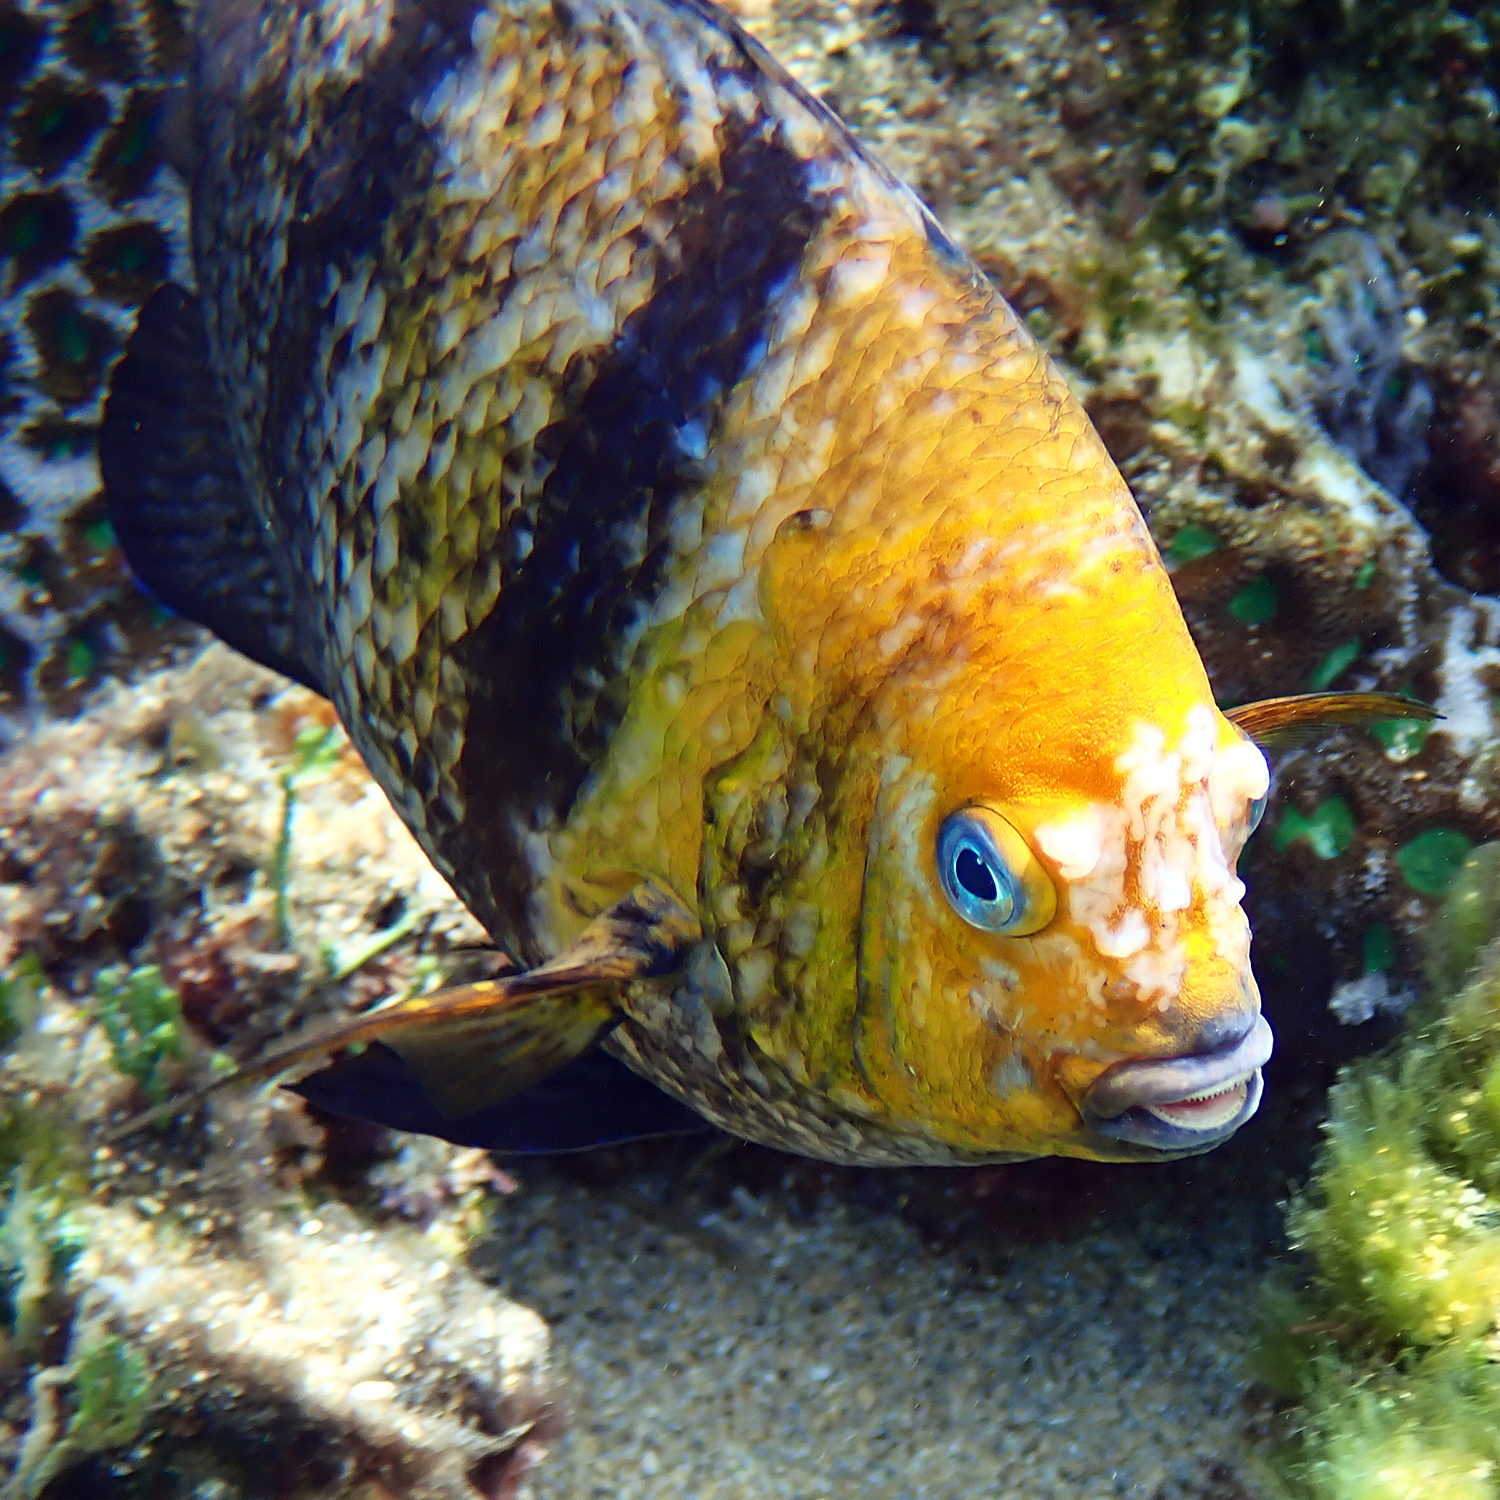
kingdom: Animalia
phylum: Chordata
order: Perciformes
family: Pomacentridae
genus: Parma
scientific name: Parma polylepis
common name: Banded parma
